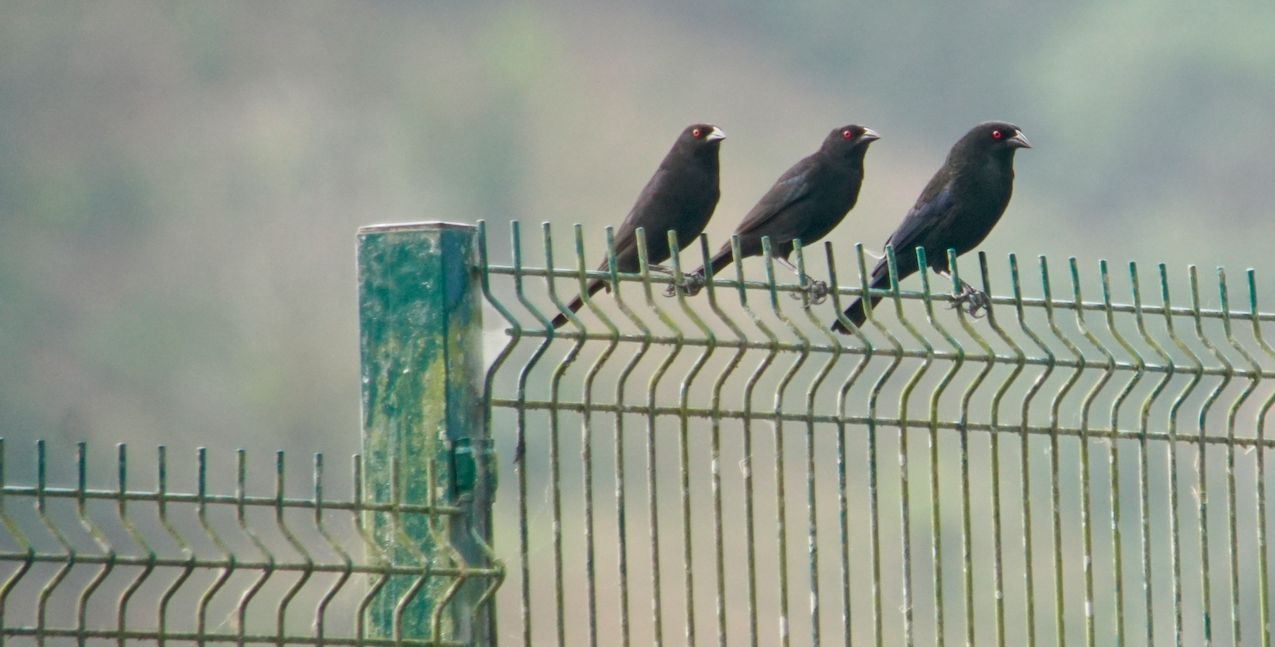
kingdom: Animalia
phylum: Chordata
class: Aves
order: Passeriformes
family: Icteridae
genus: Molothrus
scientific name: Molothrus aeneus
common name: Bronzed cowbird
